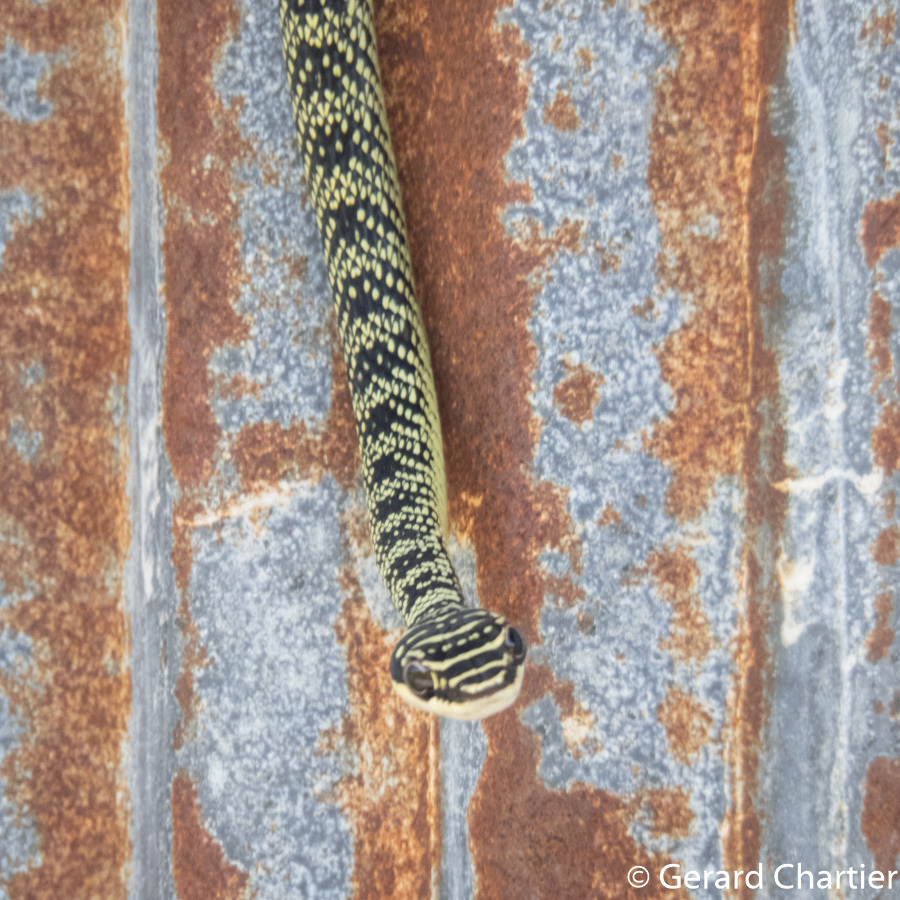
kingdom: Animalia
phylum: Chordata
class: Squamata
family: Colubridae
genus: Chrysopelea
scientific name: Chrysopelea ornata
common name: Golden flying snake
